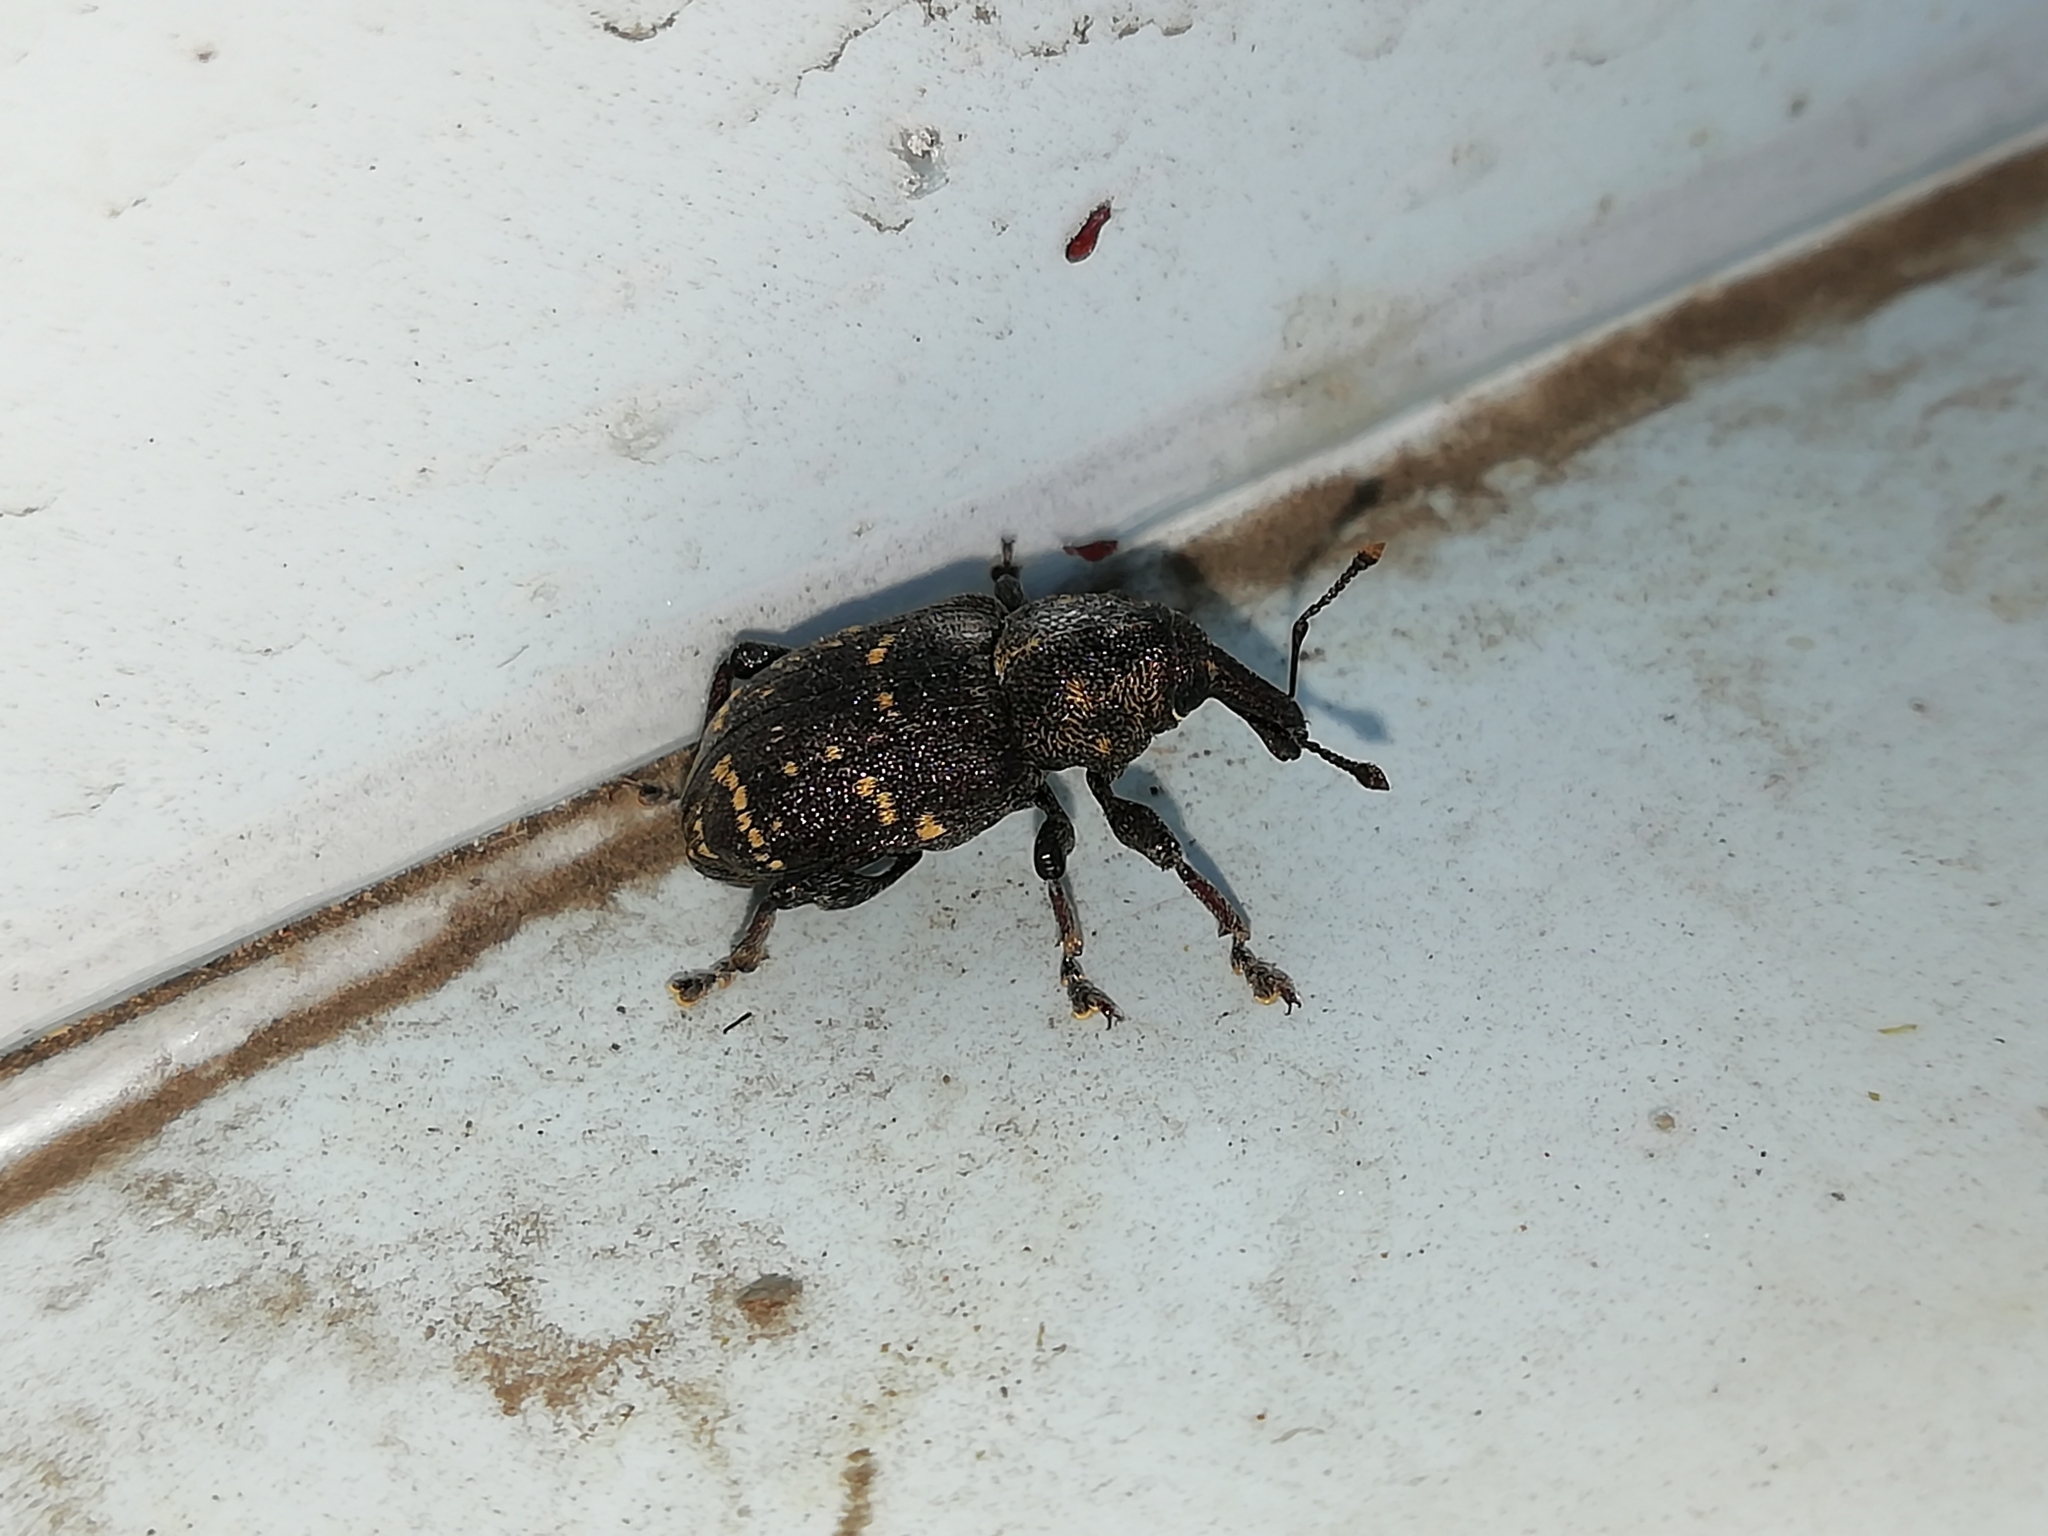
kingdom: Animalia
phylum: Arthropoda
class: Insecta
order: Coleoptera
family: Curculionidae
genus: Hylobius
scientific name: Hylobius abietis
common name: Large pine weevil
